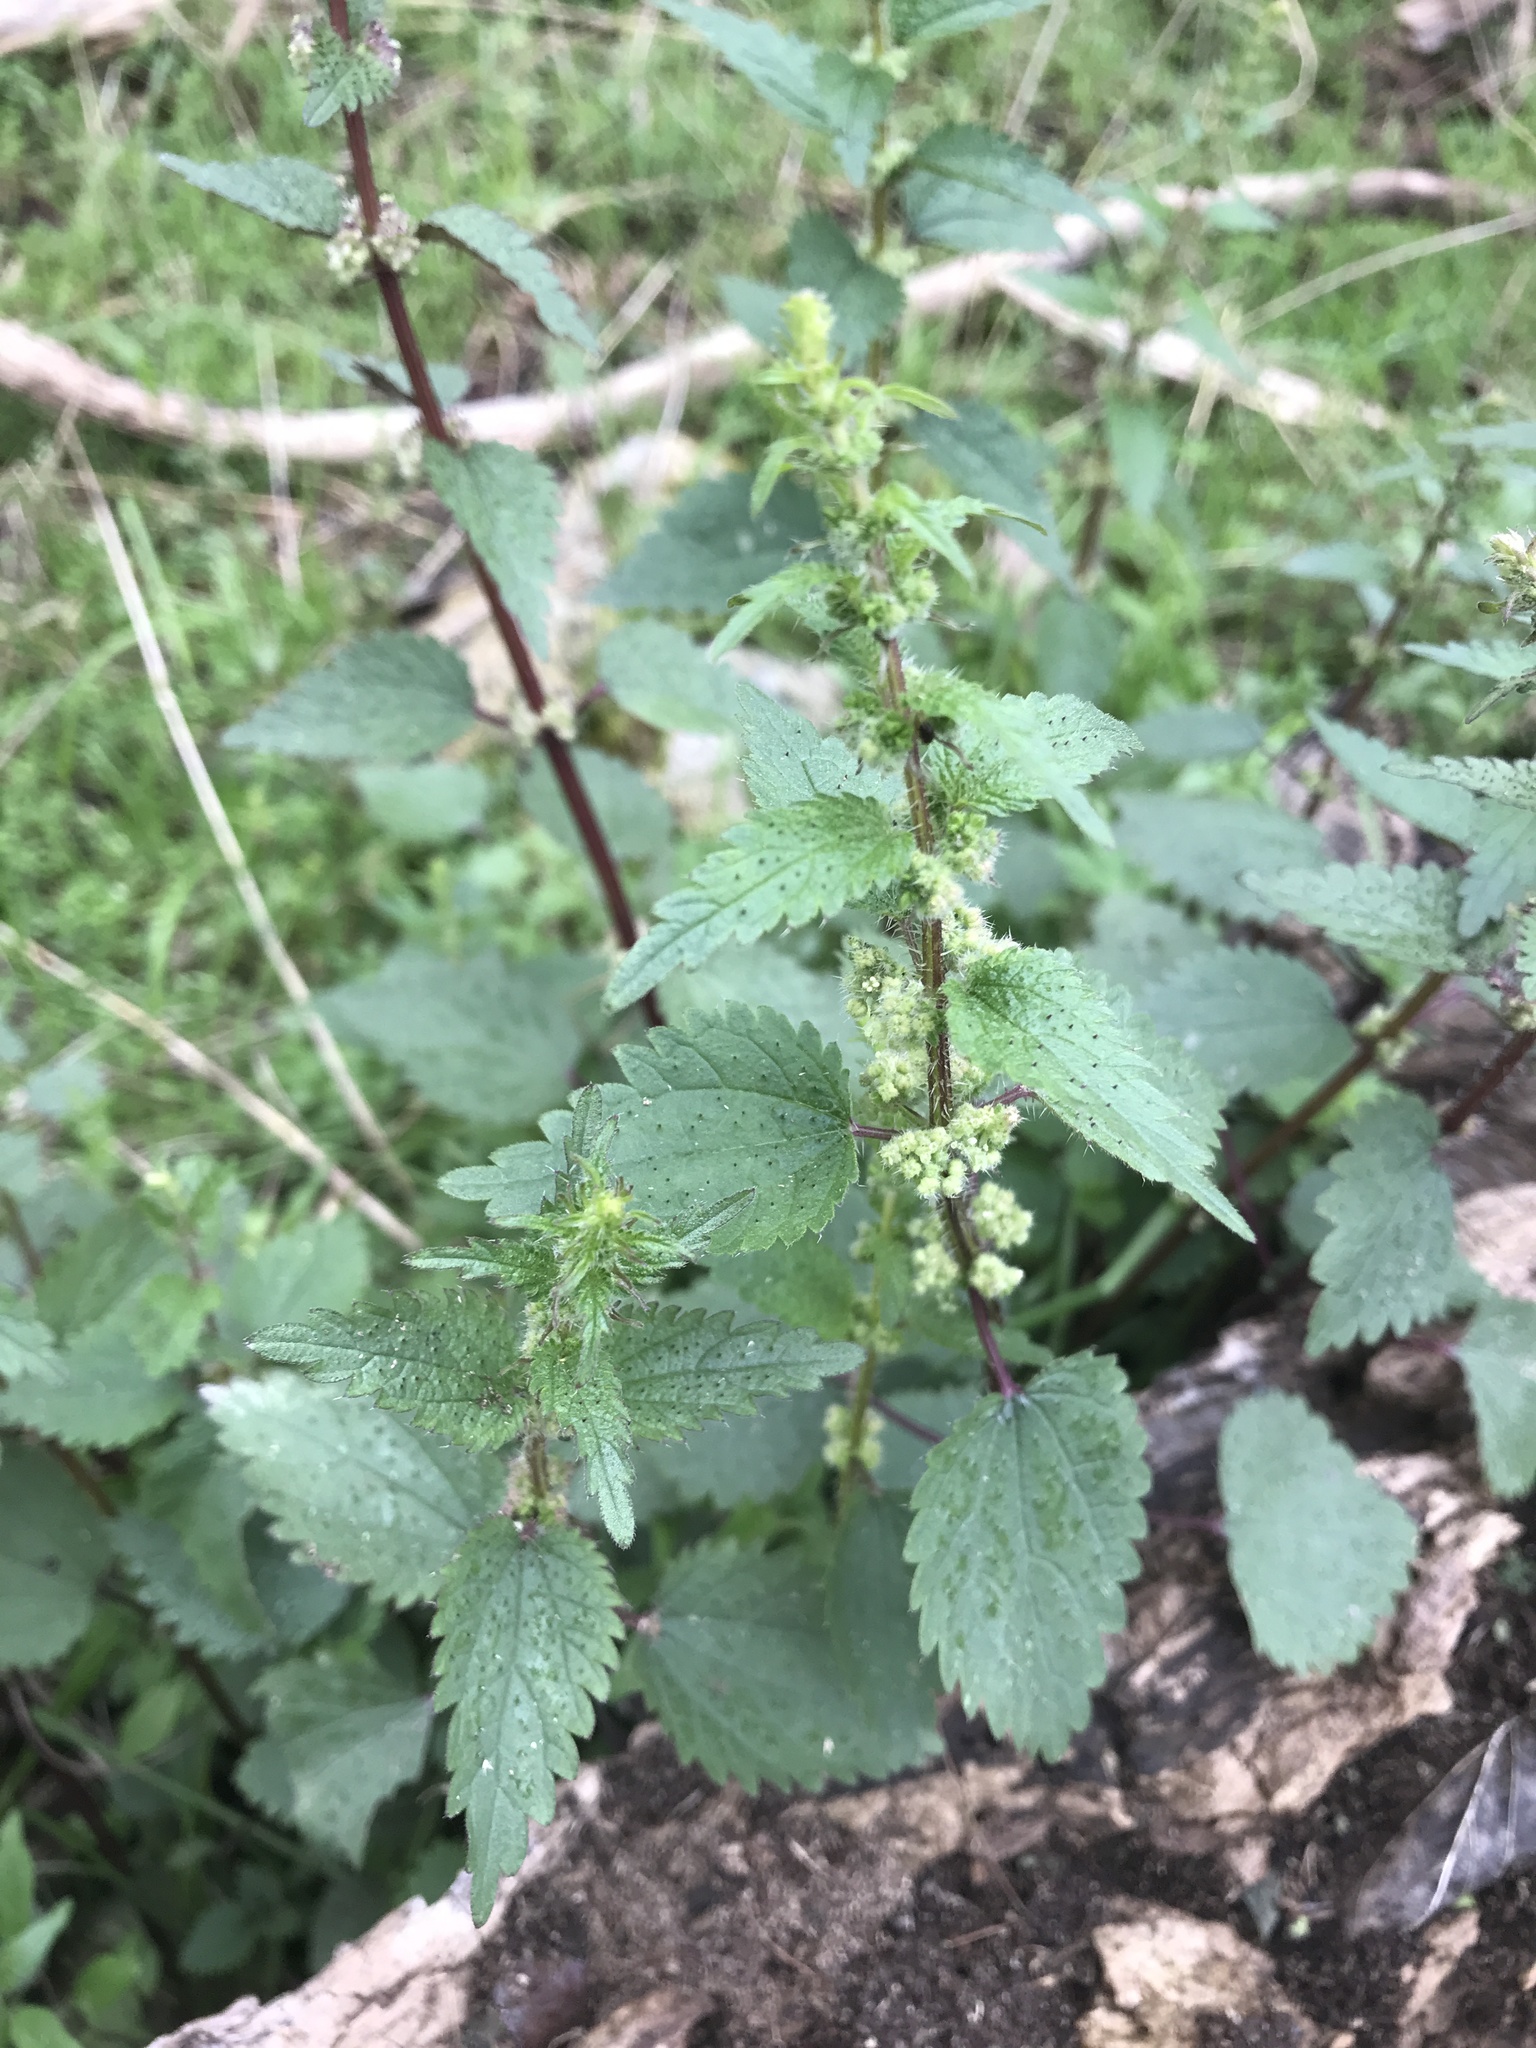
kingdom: Plantae
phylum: Tracheophyta
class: Magnoliopsida
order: Rosales
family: Urticaceae
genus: Urtica
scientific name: Urtica chamaedryoides
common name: Heart-leaf nettle
